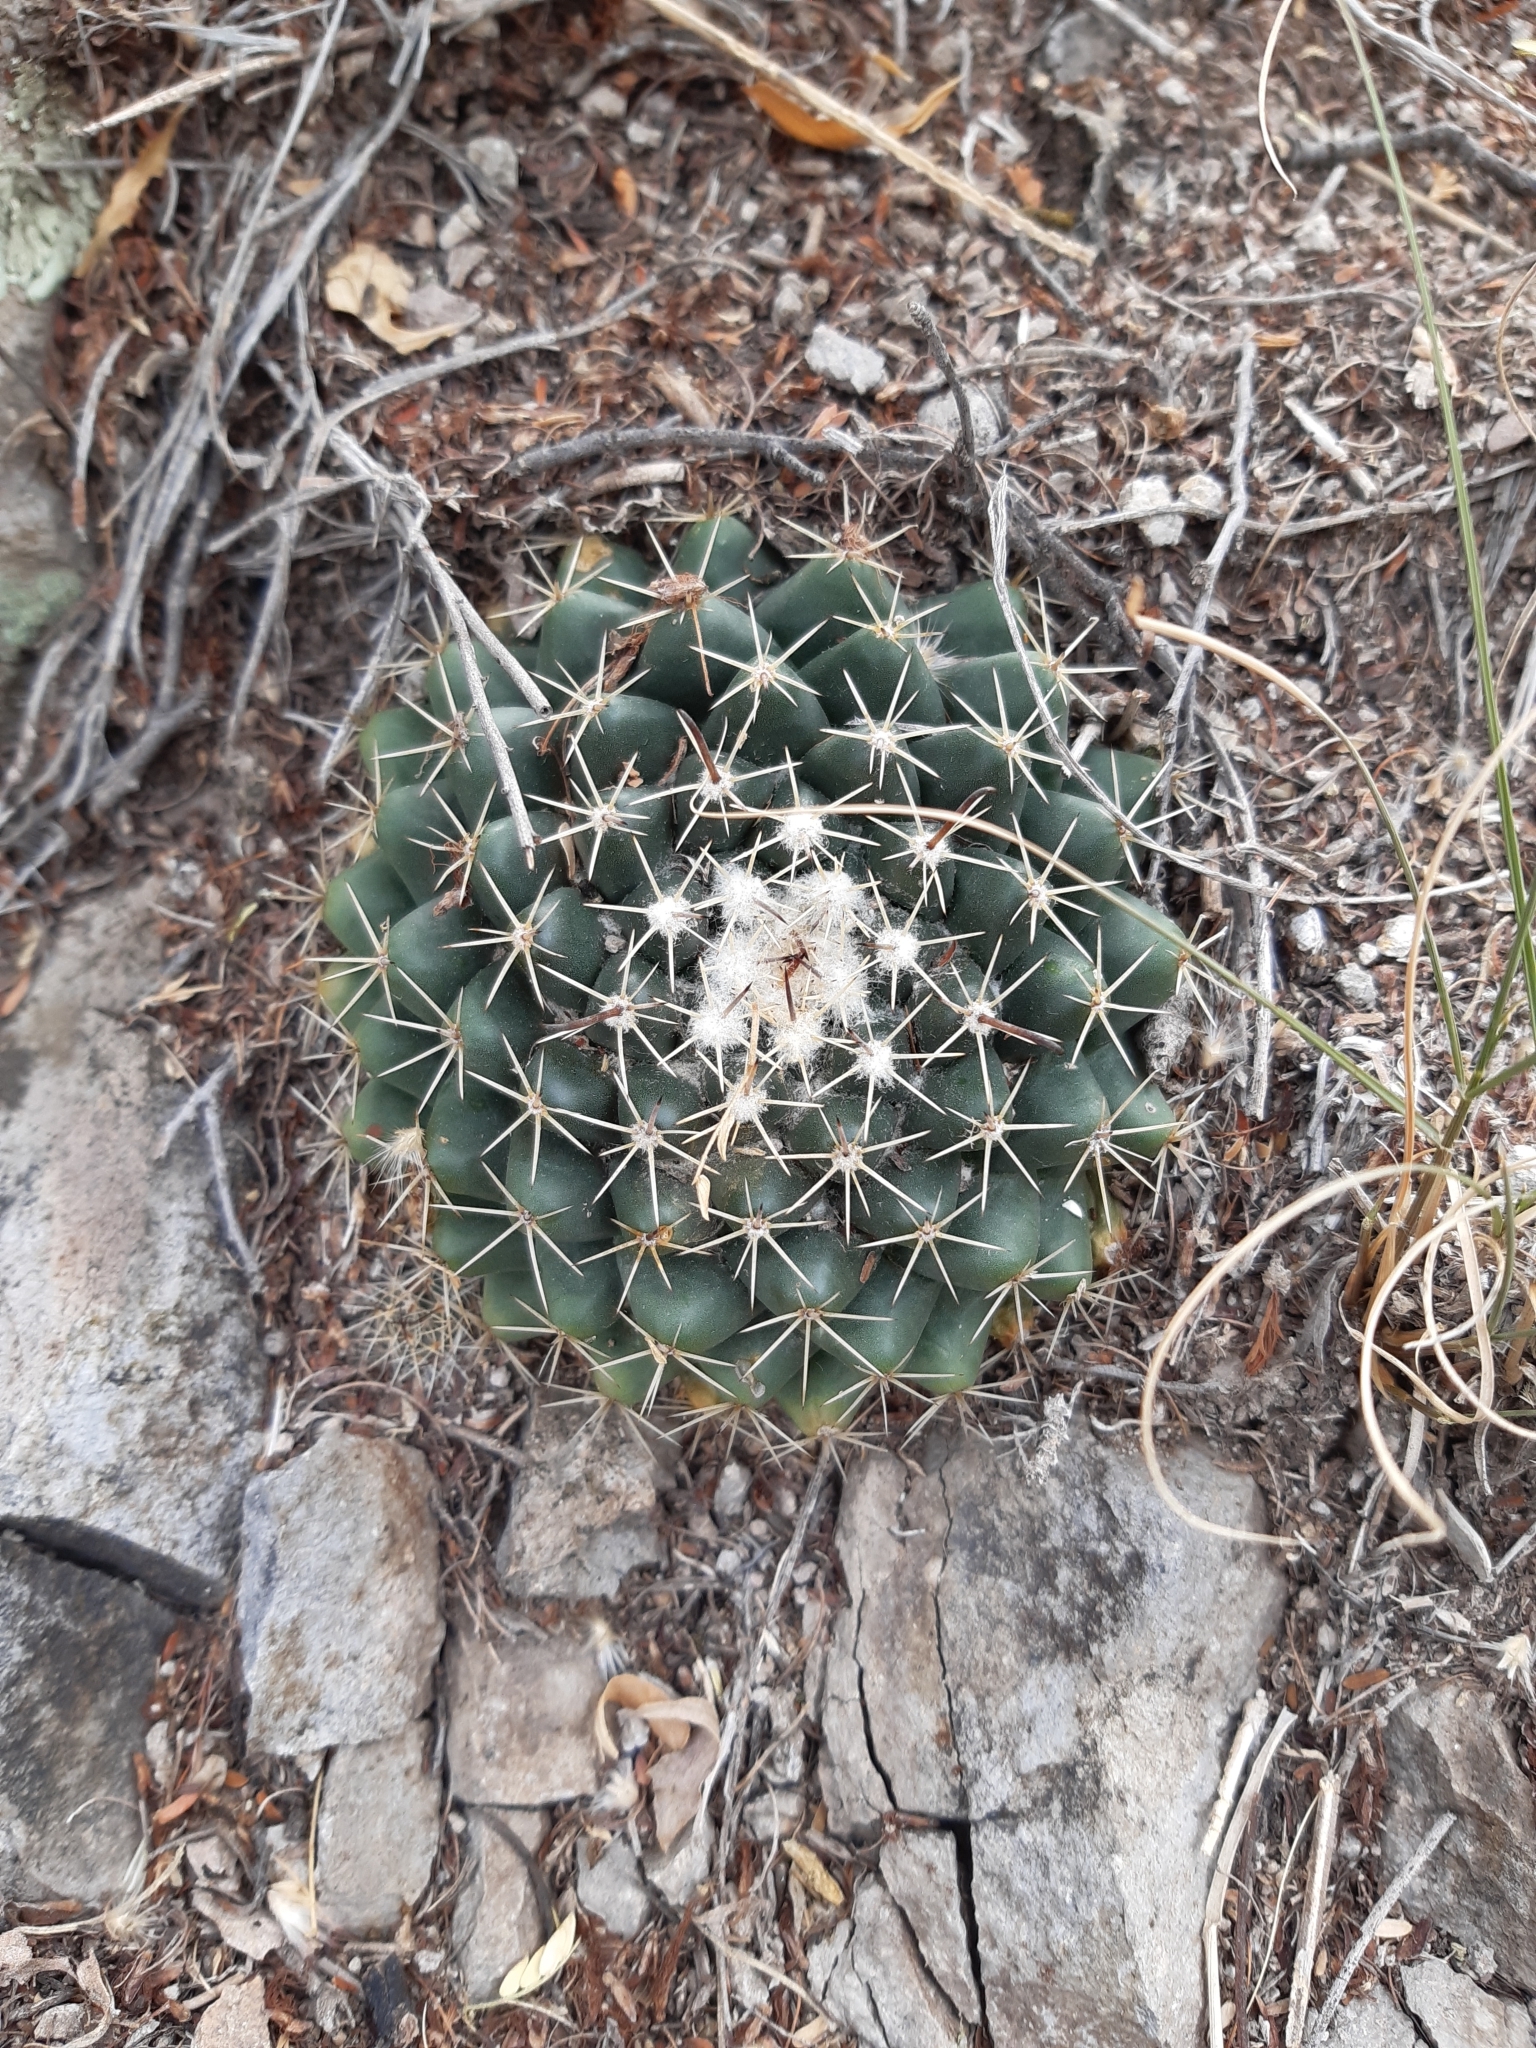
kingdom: Plantae
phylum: Tracheophyta
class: Magnoliopsida
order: Caryophyllales
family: Cactaceae
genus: Mammillaria
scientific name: Mammillaria uncinata
